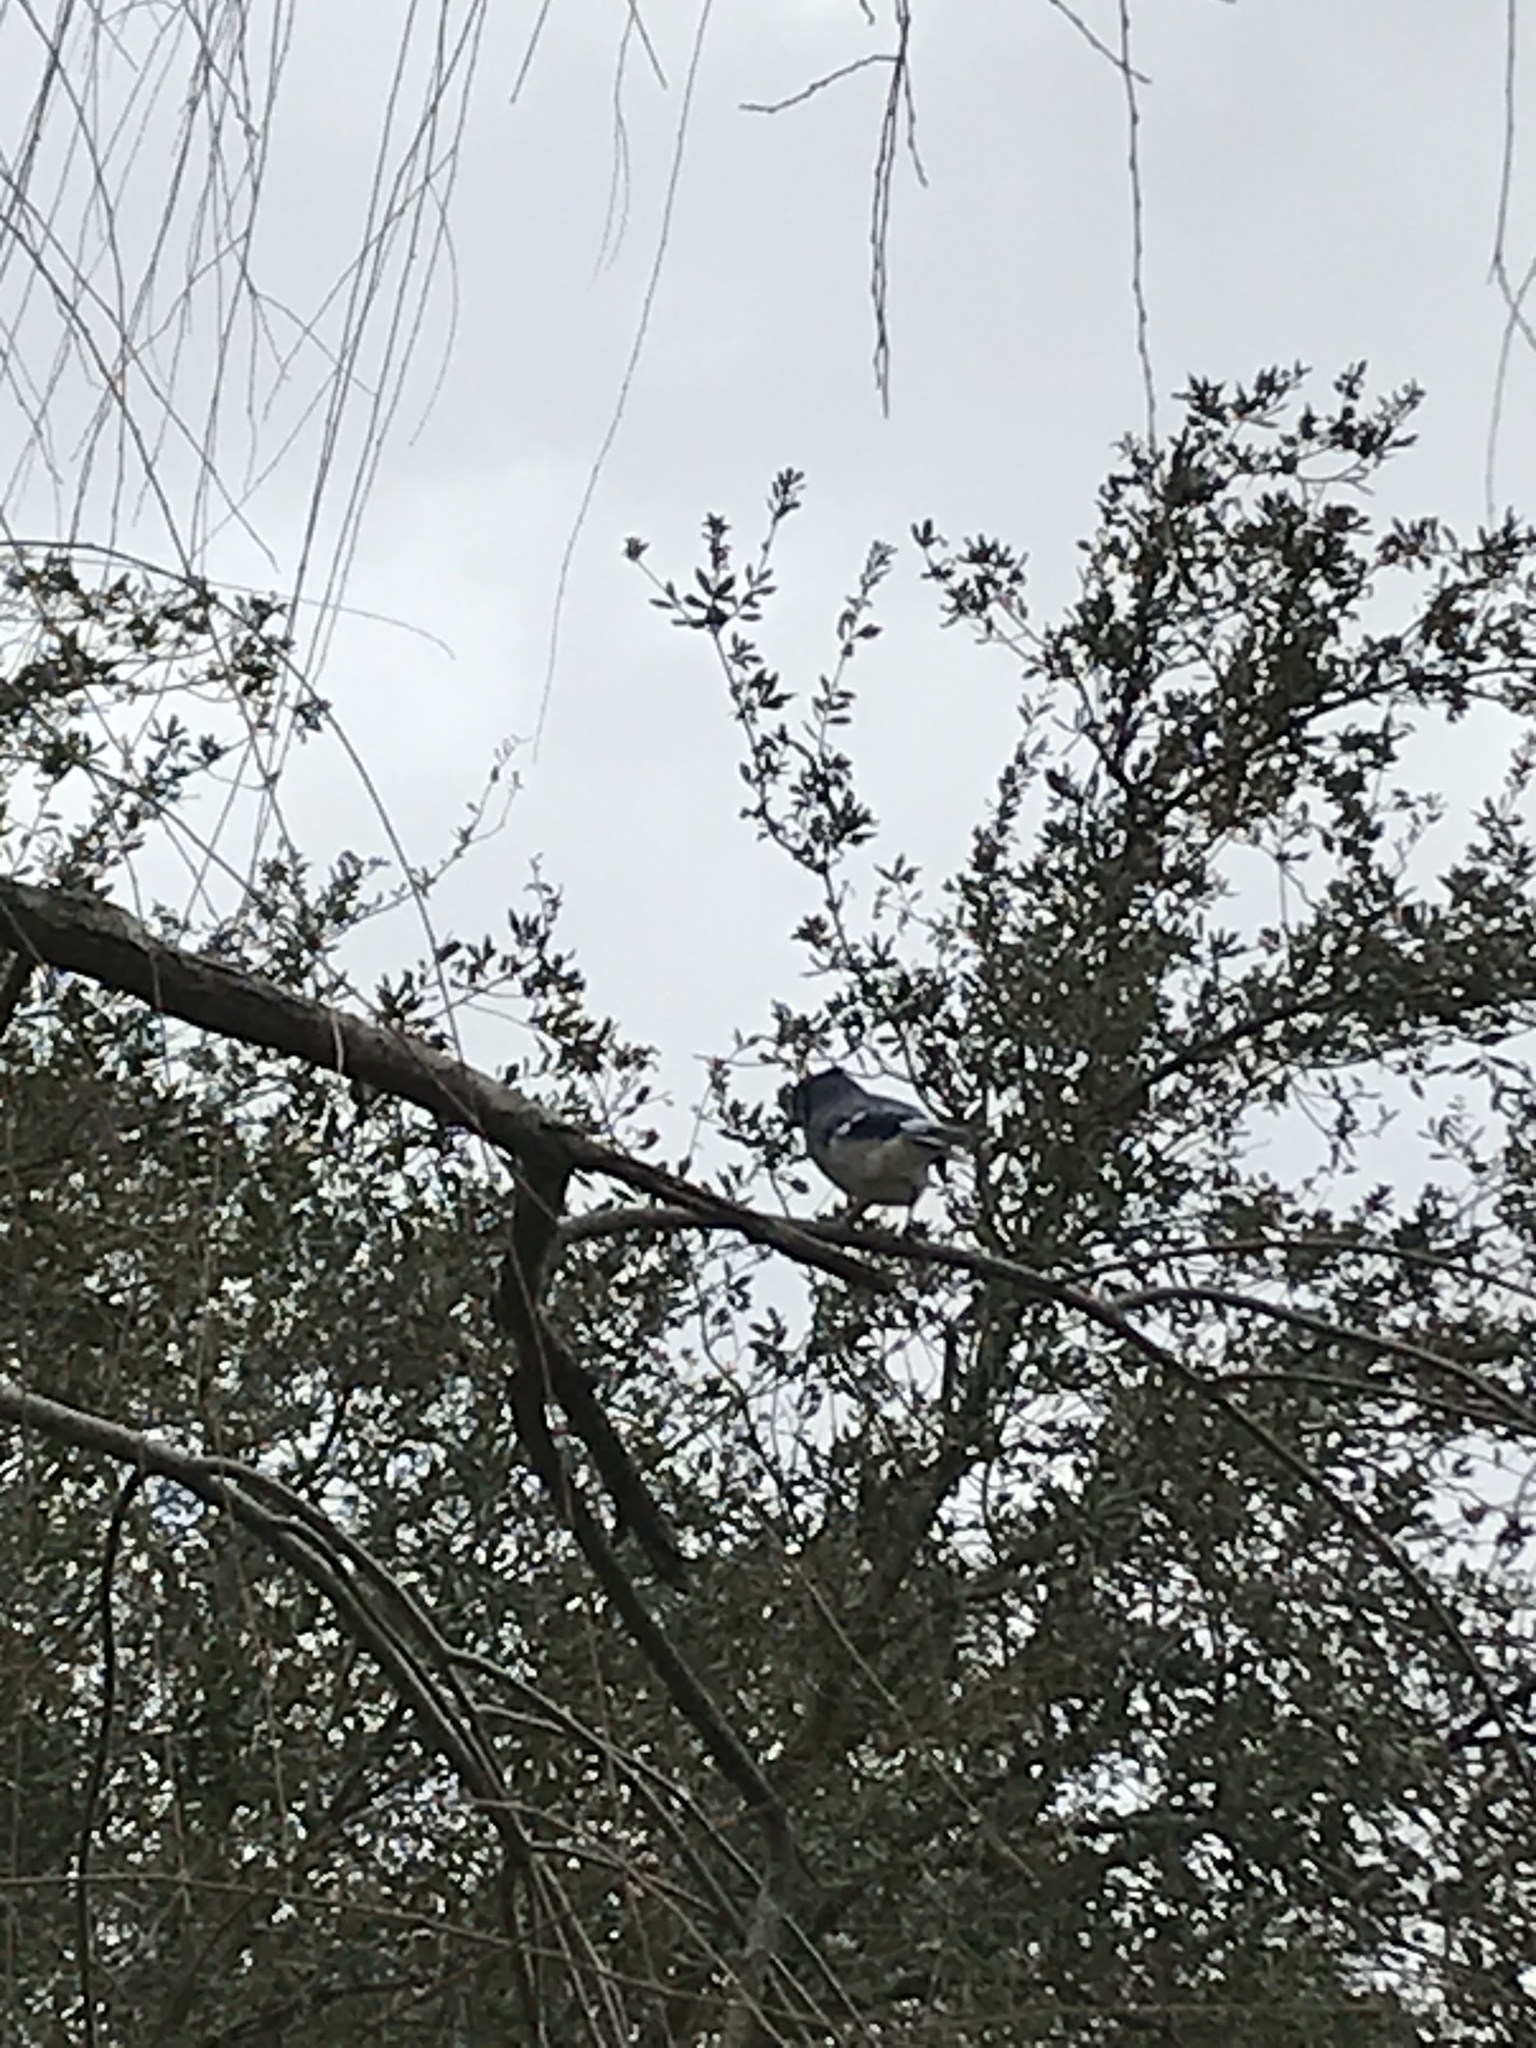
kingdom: Animalia
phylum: Chordata
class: Aves
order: Passeriformes
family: Corvidae
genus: Cyanocitta
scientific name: Cyanocitta cristata
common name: Blue jay
